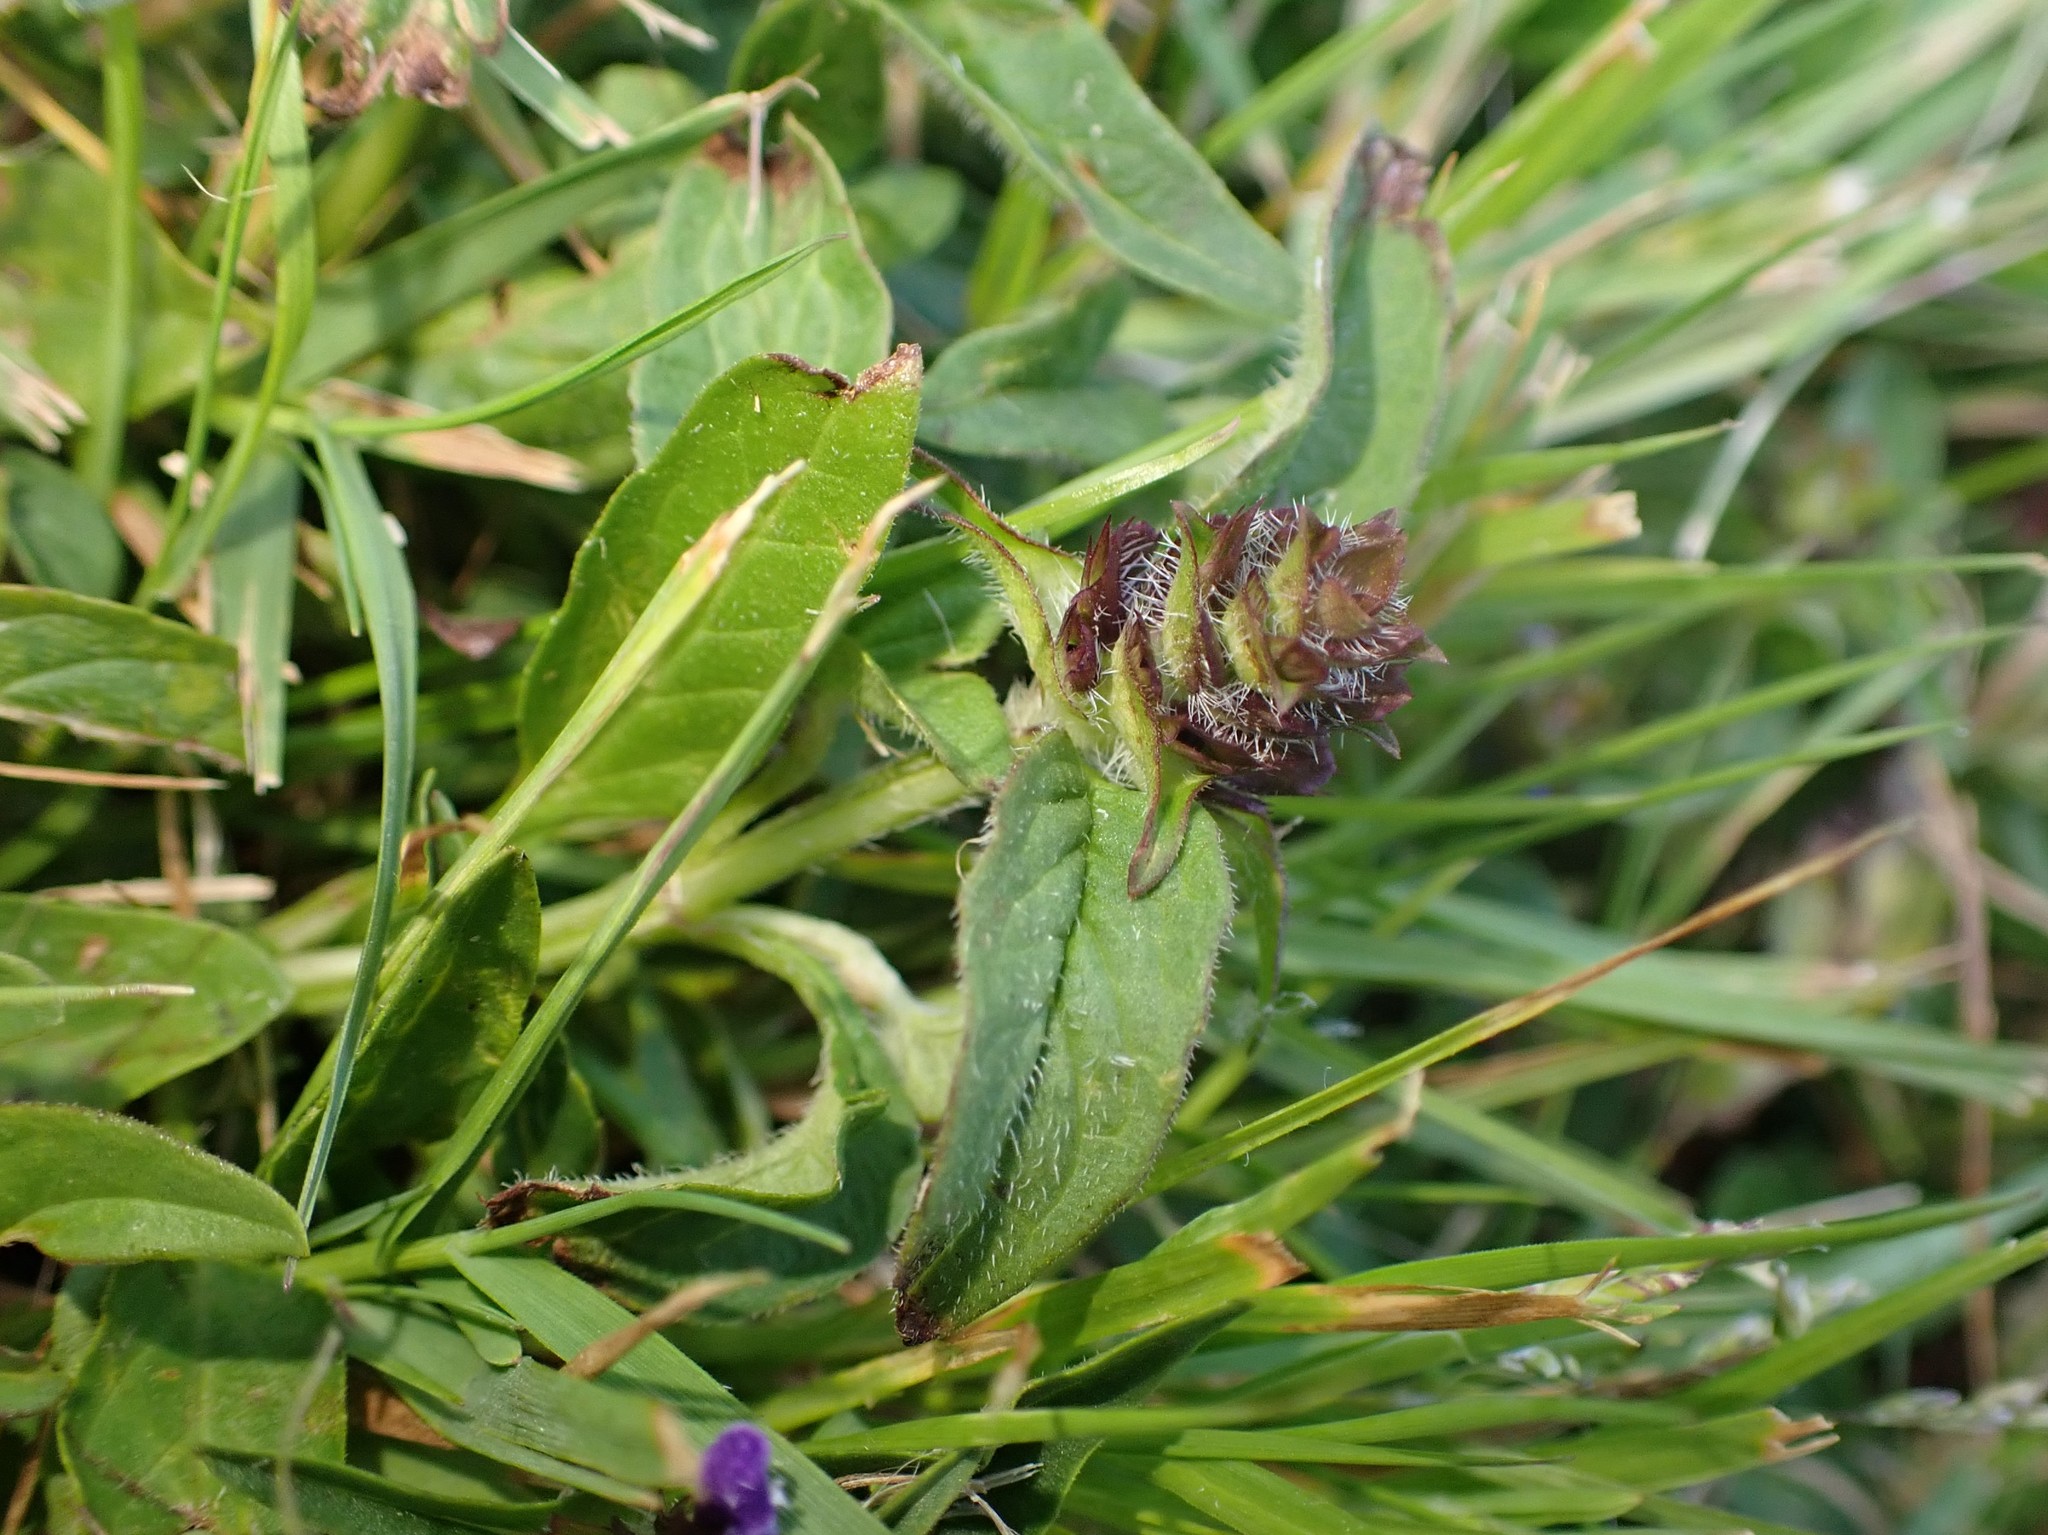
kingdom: Plantae
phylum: Tracheophyta
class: Magnoliopsida
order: Lamiales
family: Lamiaceae
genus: Prunella
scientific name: Prunella vulgaris
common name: Heal-all
